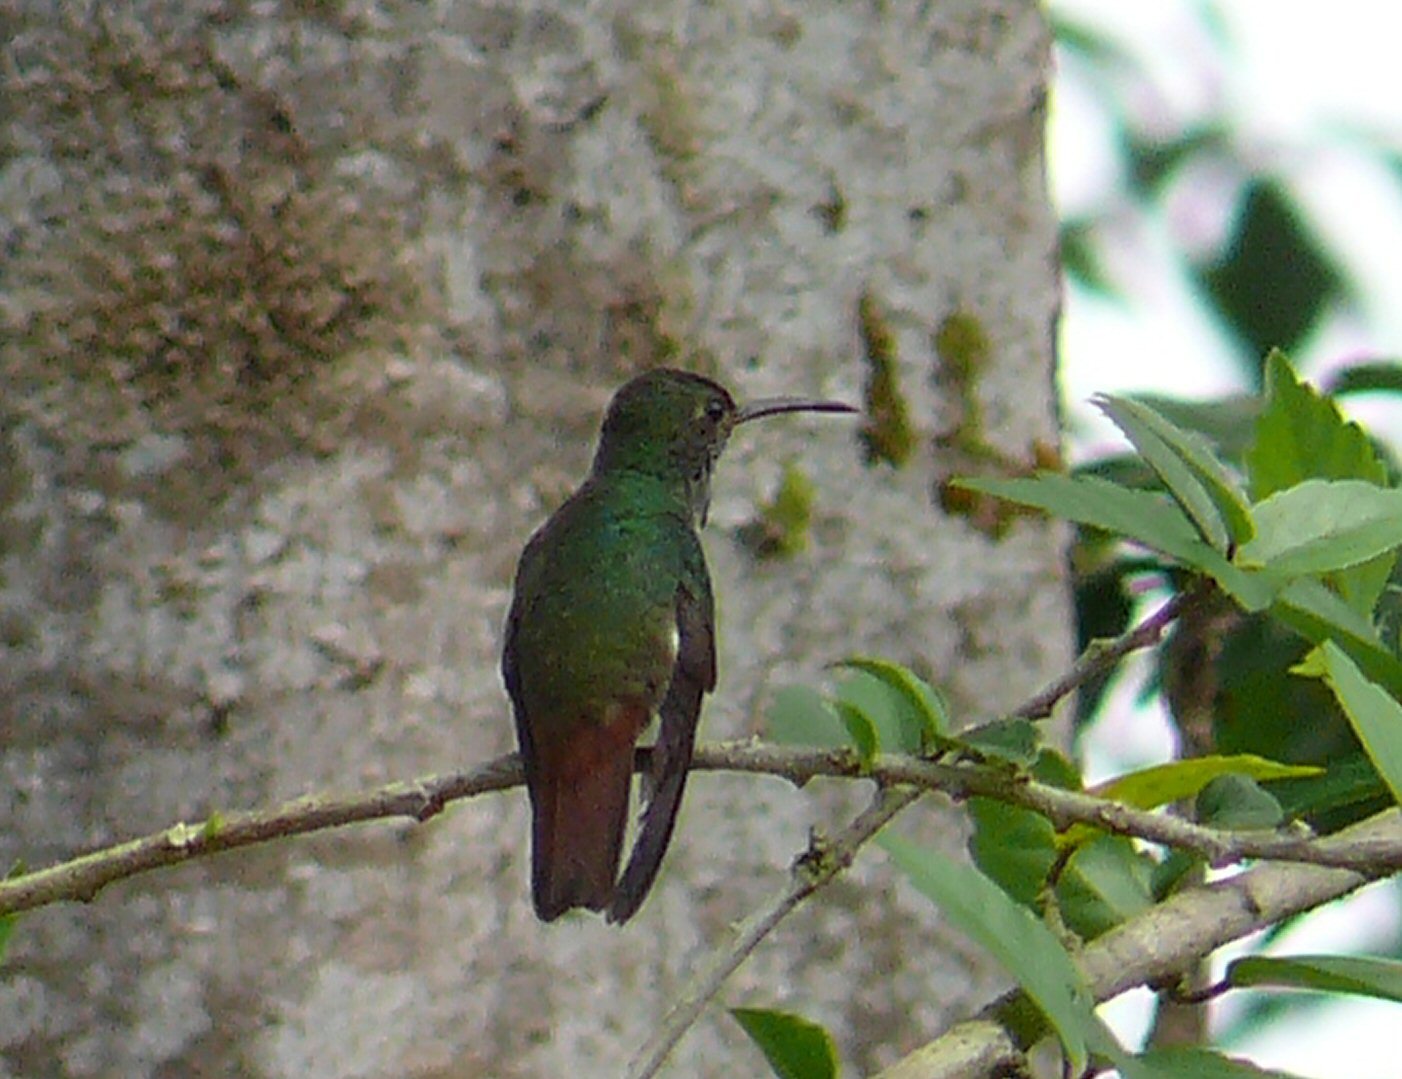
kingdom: Animalia
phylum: Chordata
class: Aves
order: Apodiformes
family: Trochilidae
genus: Amazilia
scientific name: Amazilia tzacatl
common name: Rufous-tailed hummingbird
